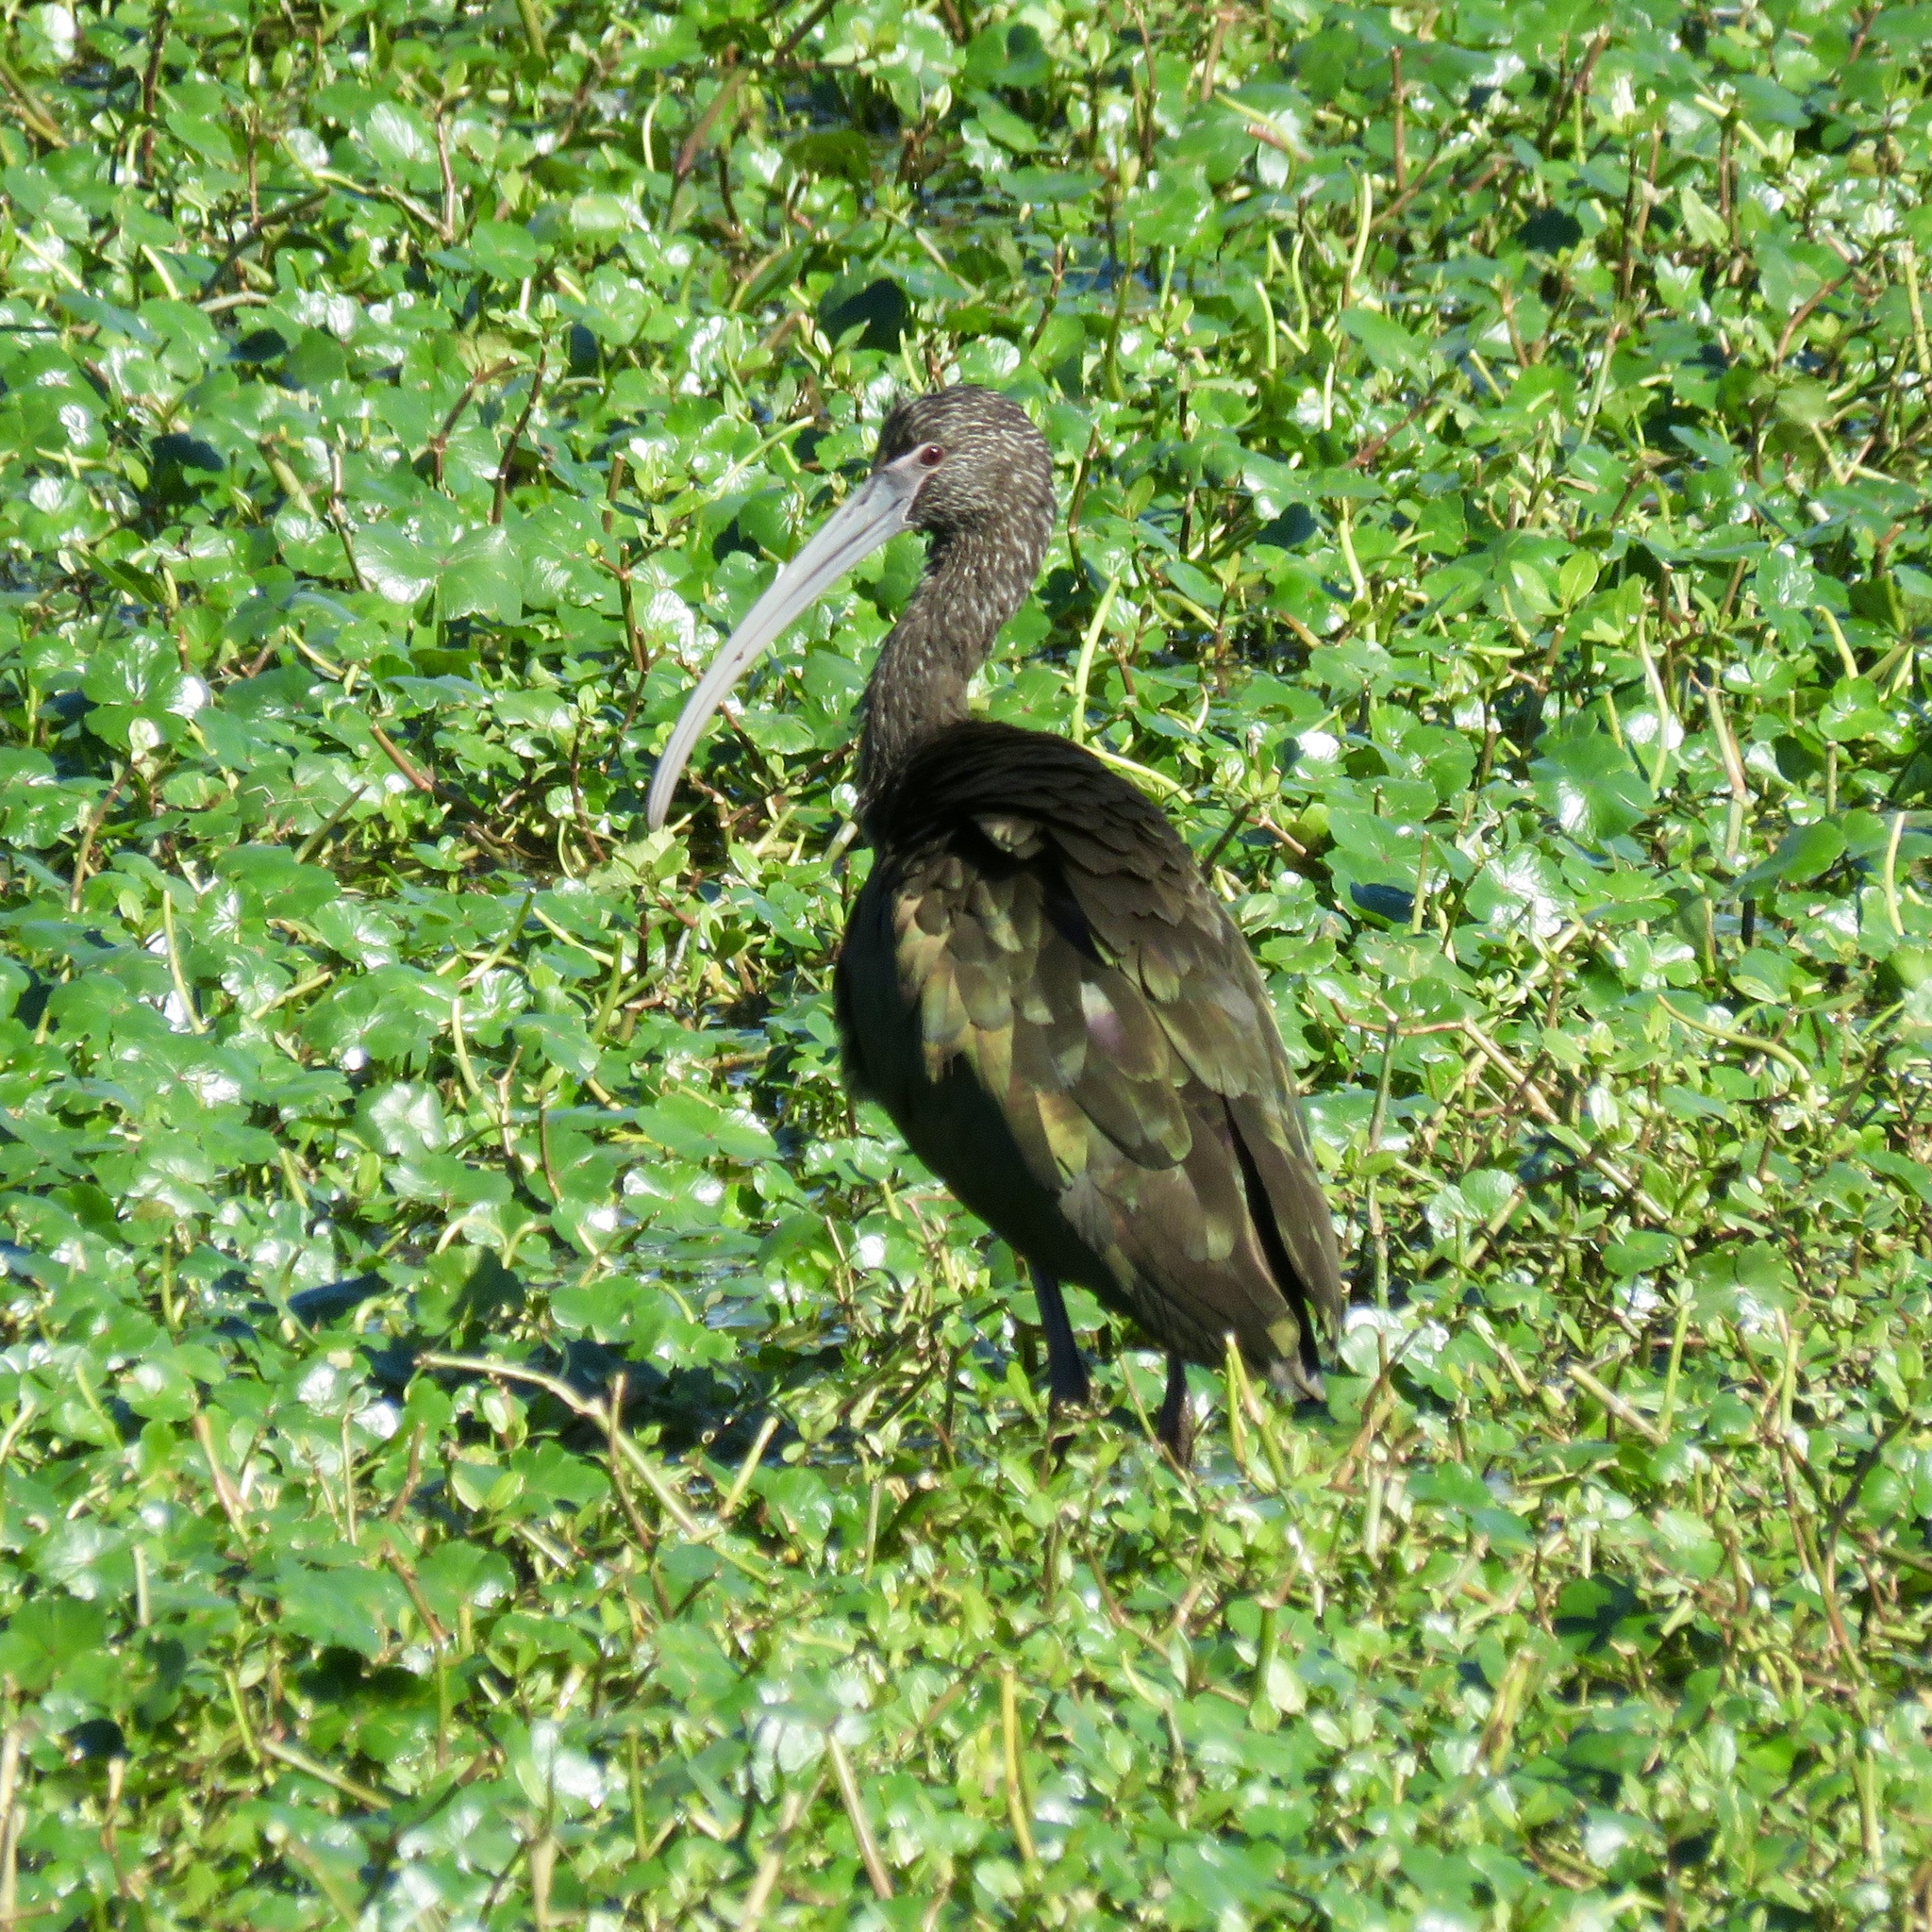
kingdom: Animalia
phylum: Chordata
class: Aves
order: Pelecaniformes
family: Threskiornithidae
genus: Plegadis
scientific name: Plegadis chihi
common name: White-faced ibis
